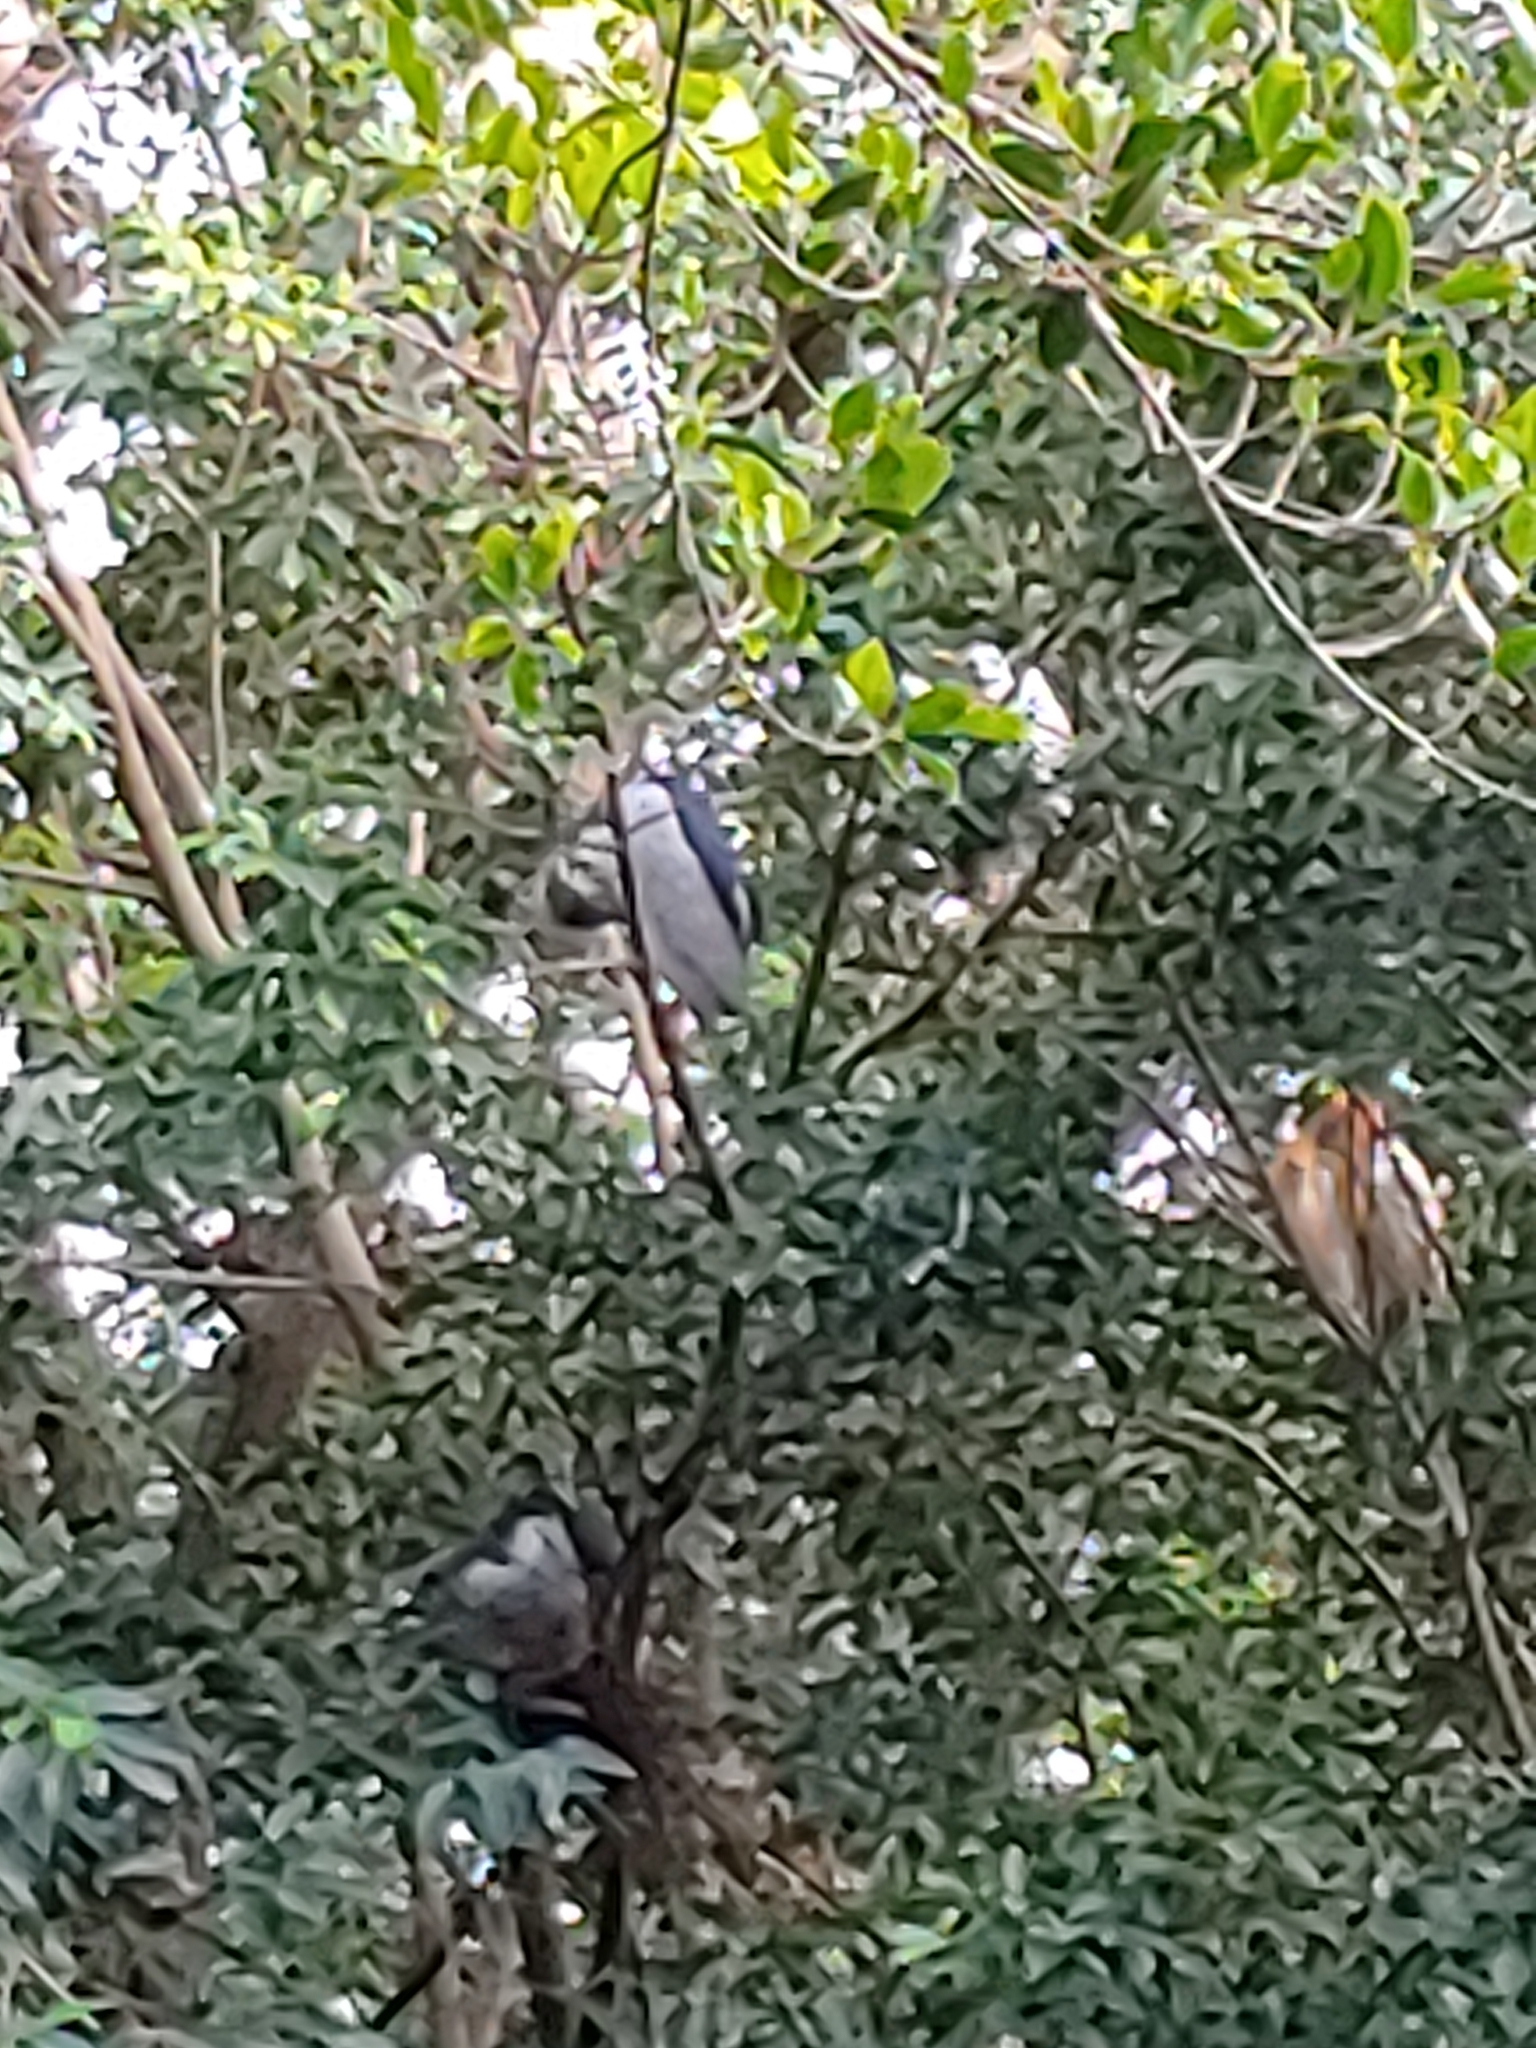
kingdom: Animalia
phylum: Chordata
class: Aves
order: Pelecaniformes
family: Ardeidae
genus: Nycticorax
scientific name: Nycticorax nycticorax
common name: Black-crowned night heron
